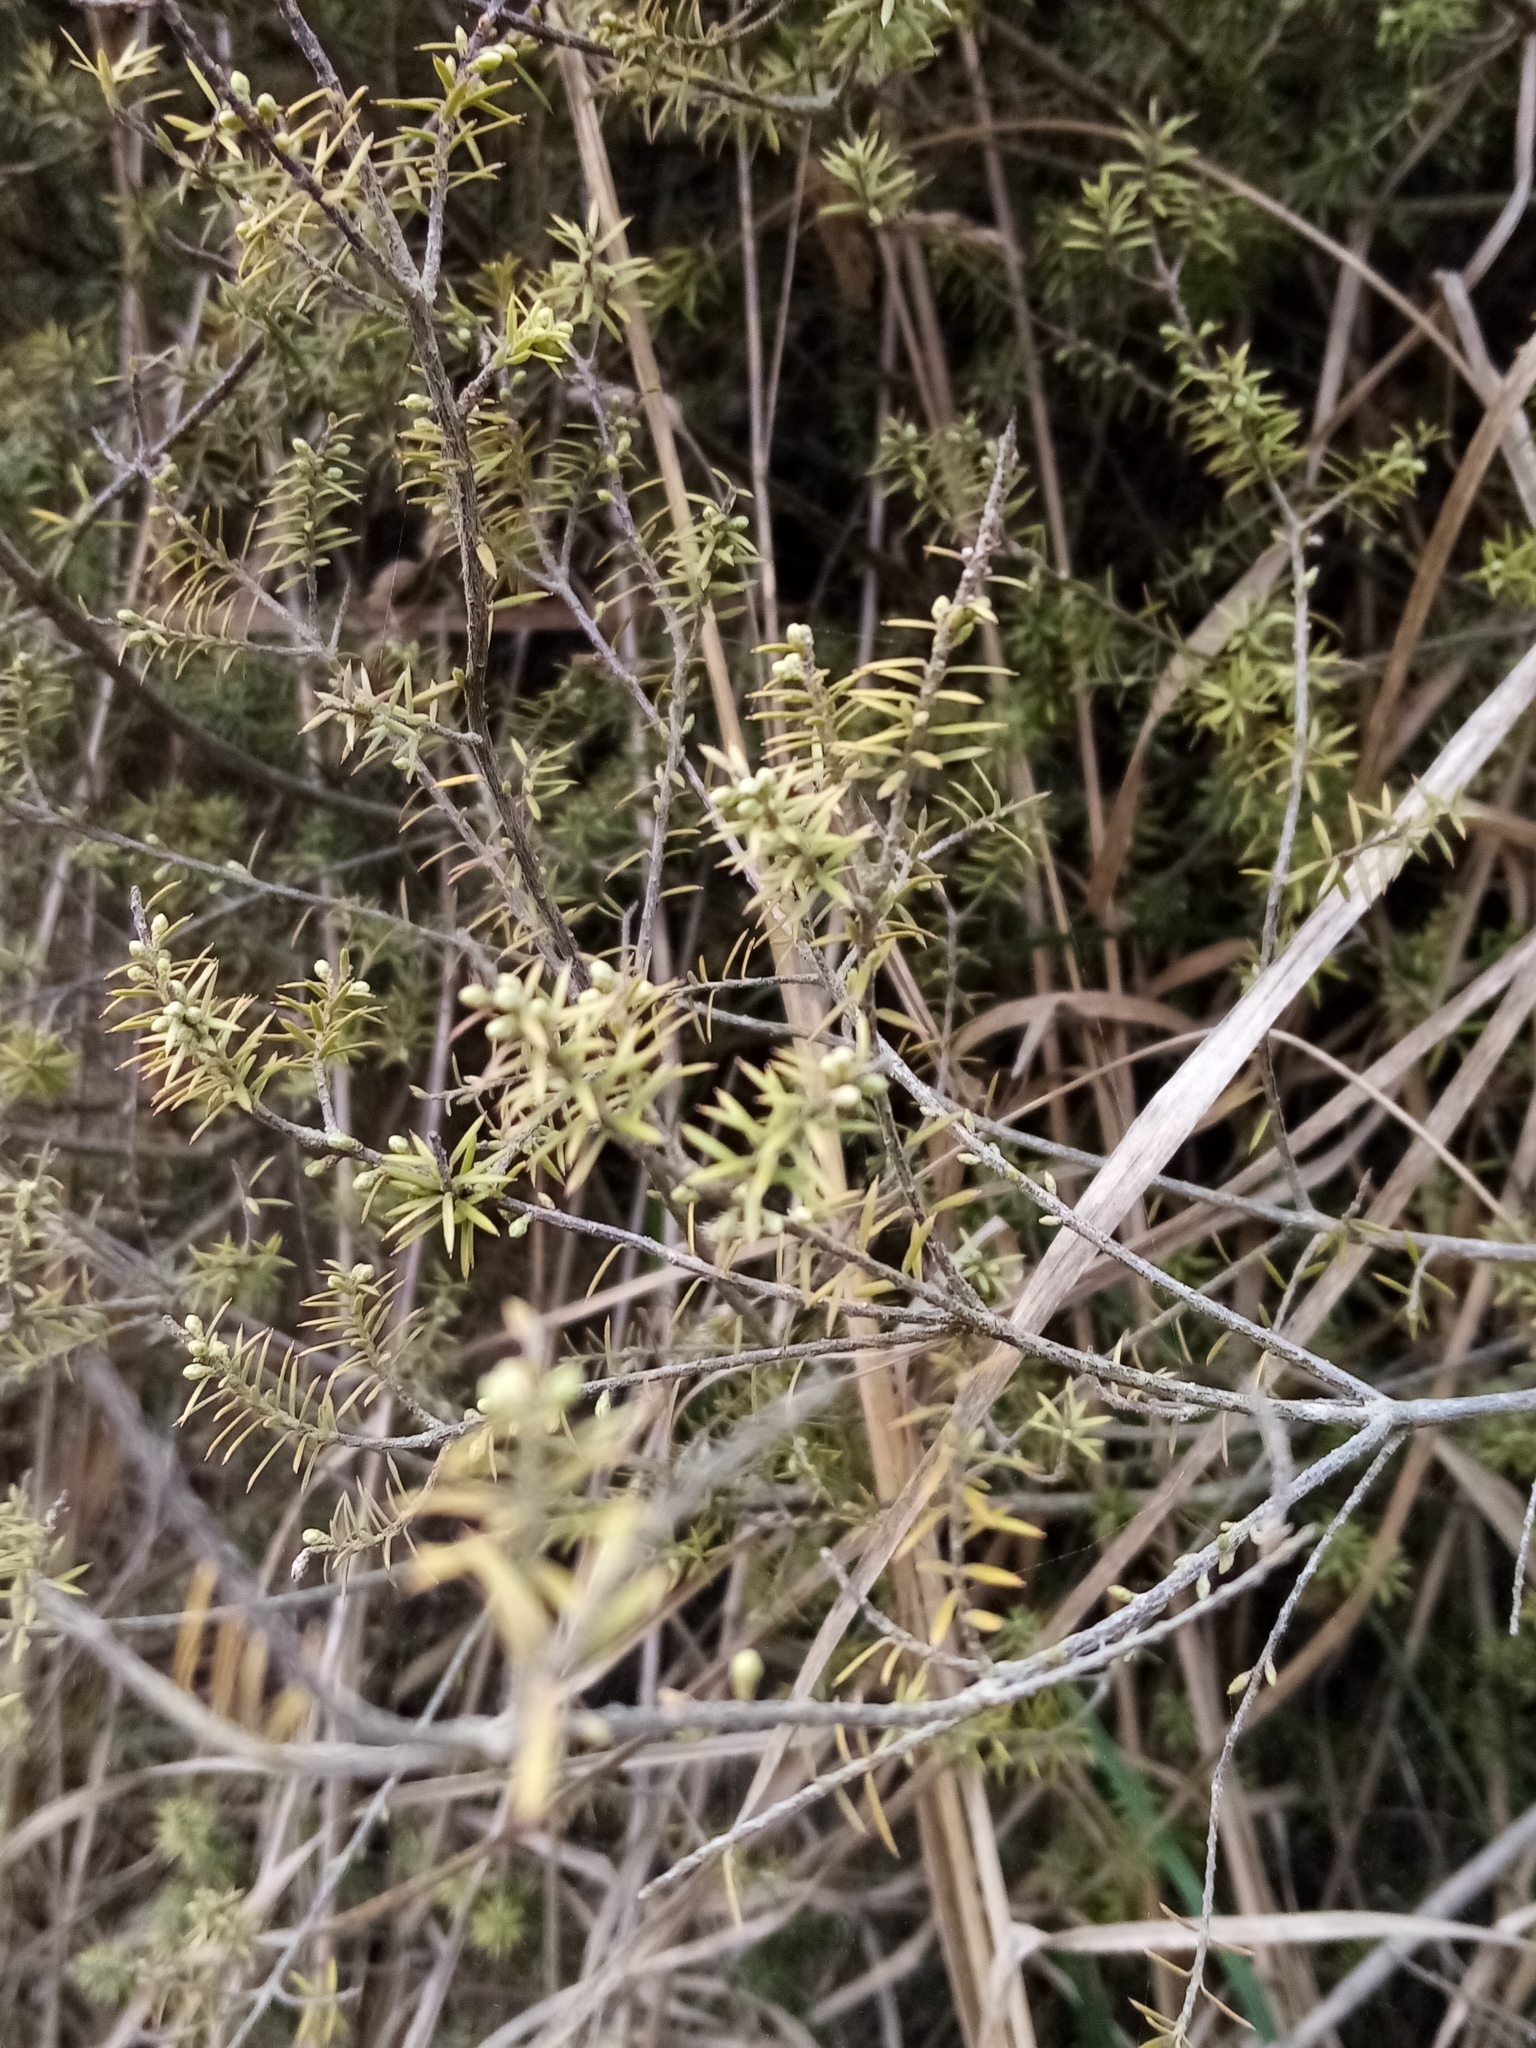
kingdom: Plantae
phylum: Tracheophyta
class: Magnoliopsida
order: Ericales
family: Ericaceae
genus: Leptecophylla
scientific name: Leptecophylla juniperina
